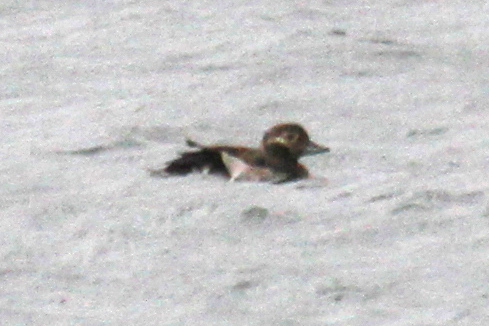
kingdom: Animalia
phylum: Chordata
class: Aves
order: Anseriformes
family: Anatidae
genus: Clangula
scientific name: Clangula hyemalis
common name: Long-tailed duck
